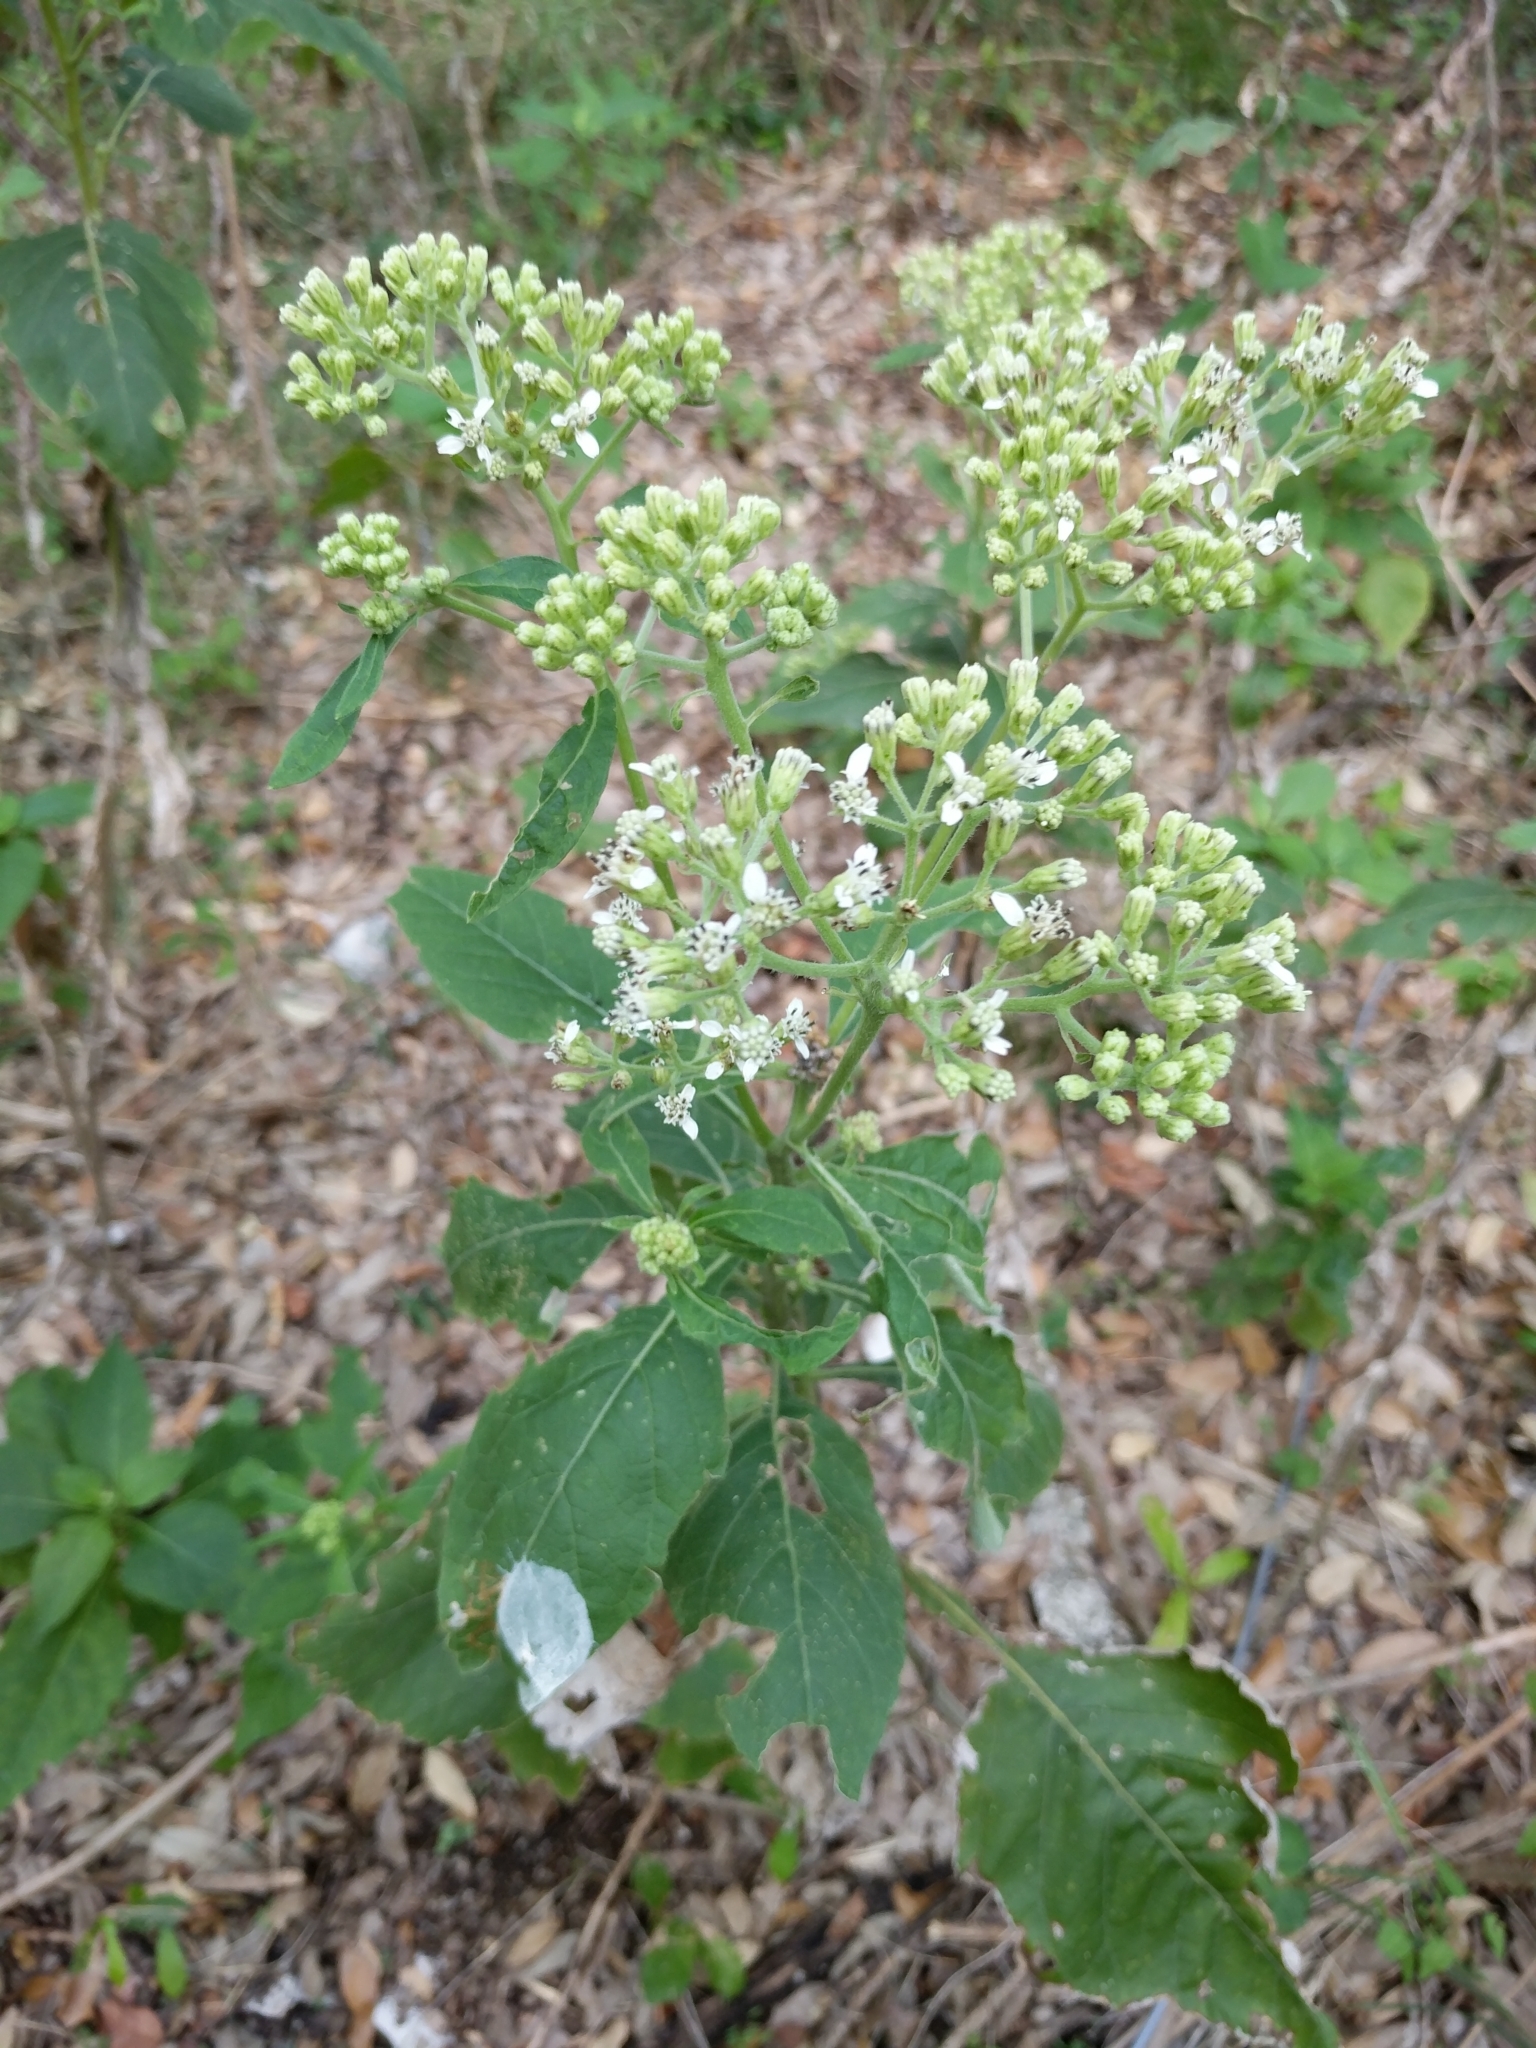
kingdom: Plantae
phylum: Tracheophyta
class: Magnoliopsida
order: Asterales
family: Asteraceae
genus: Verbesina
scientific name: Verbesina virginica
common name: Frostweed
